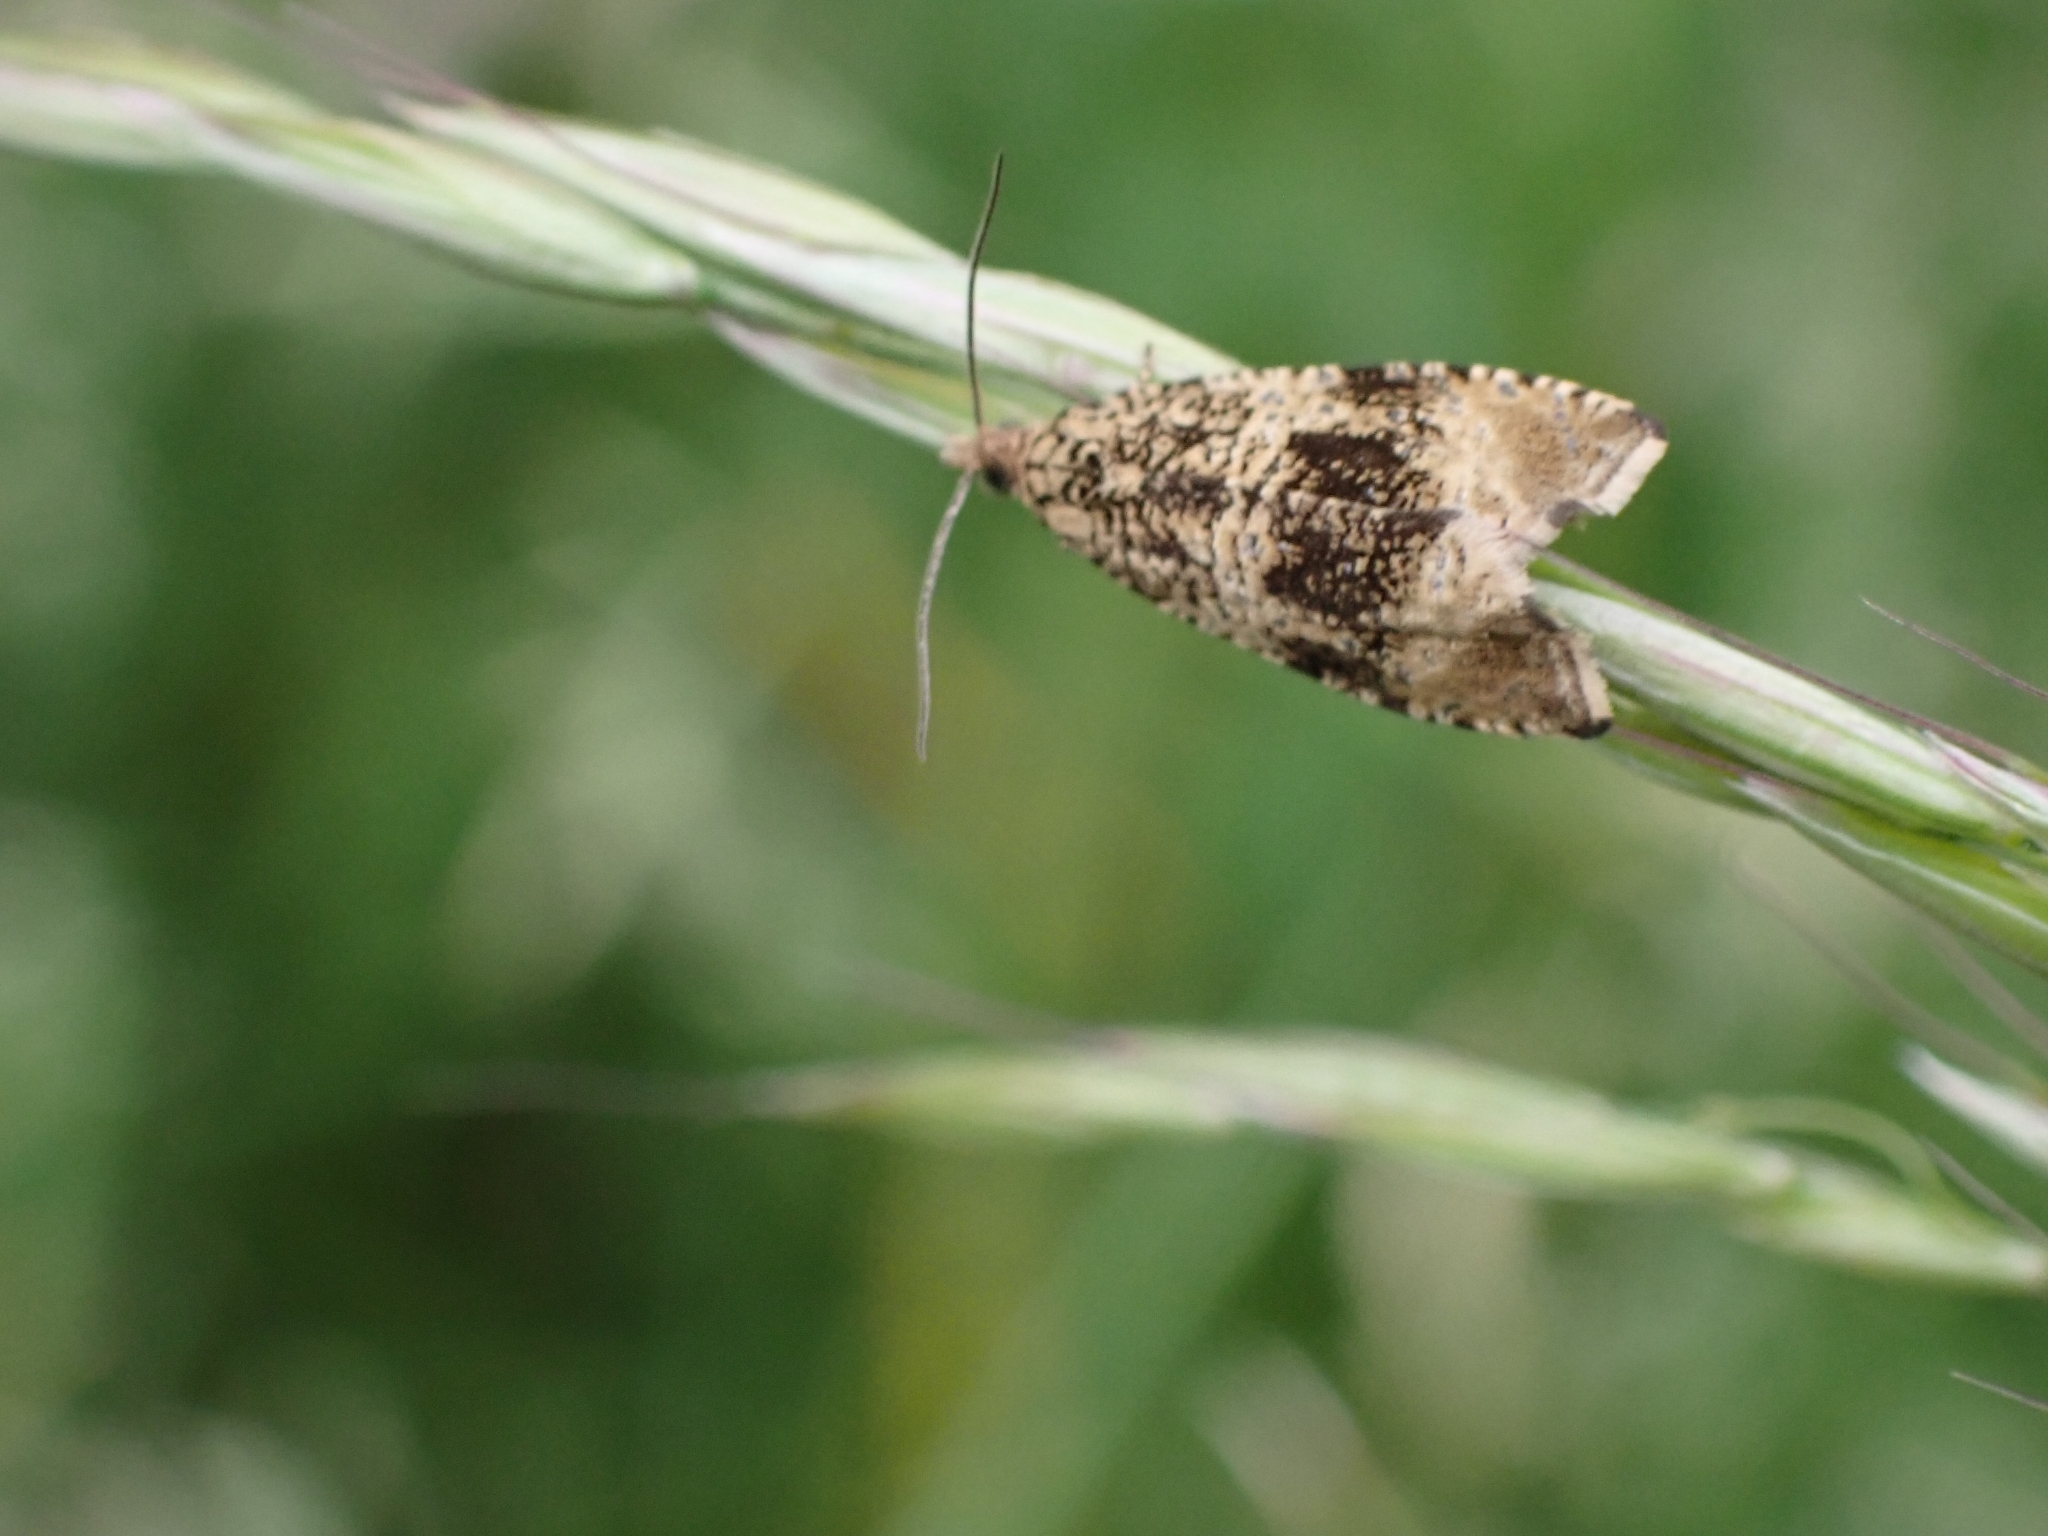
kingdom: Animalia
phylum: Arthropoda
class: Insecta
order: Lepidoptera
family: Tortricidae
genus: Syricoris
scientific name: Syricoris lacunana
